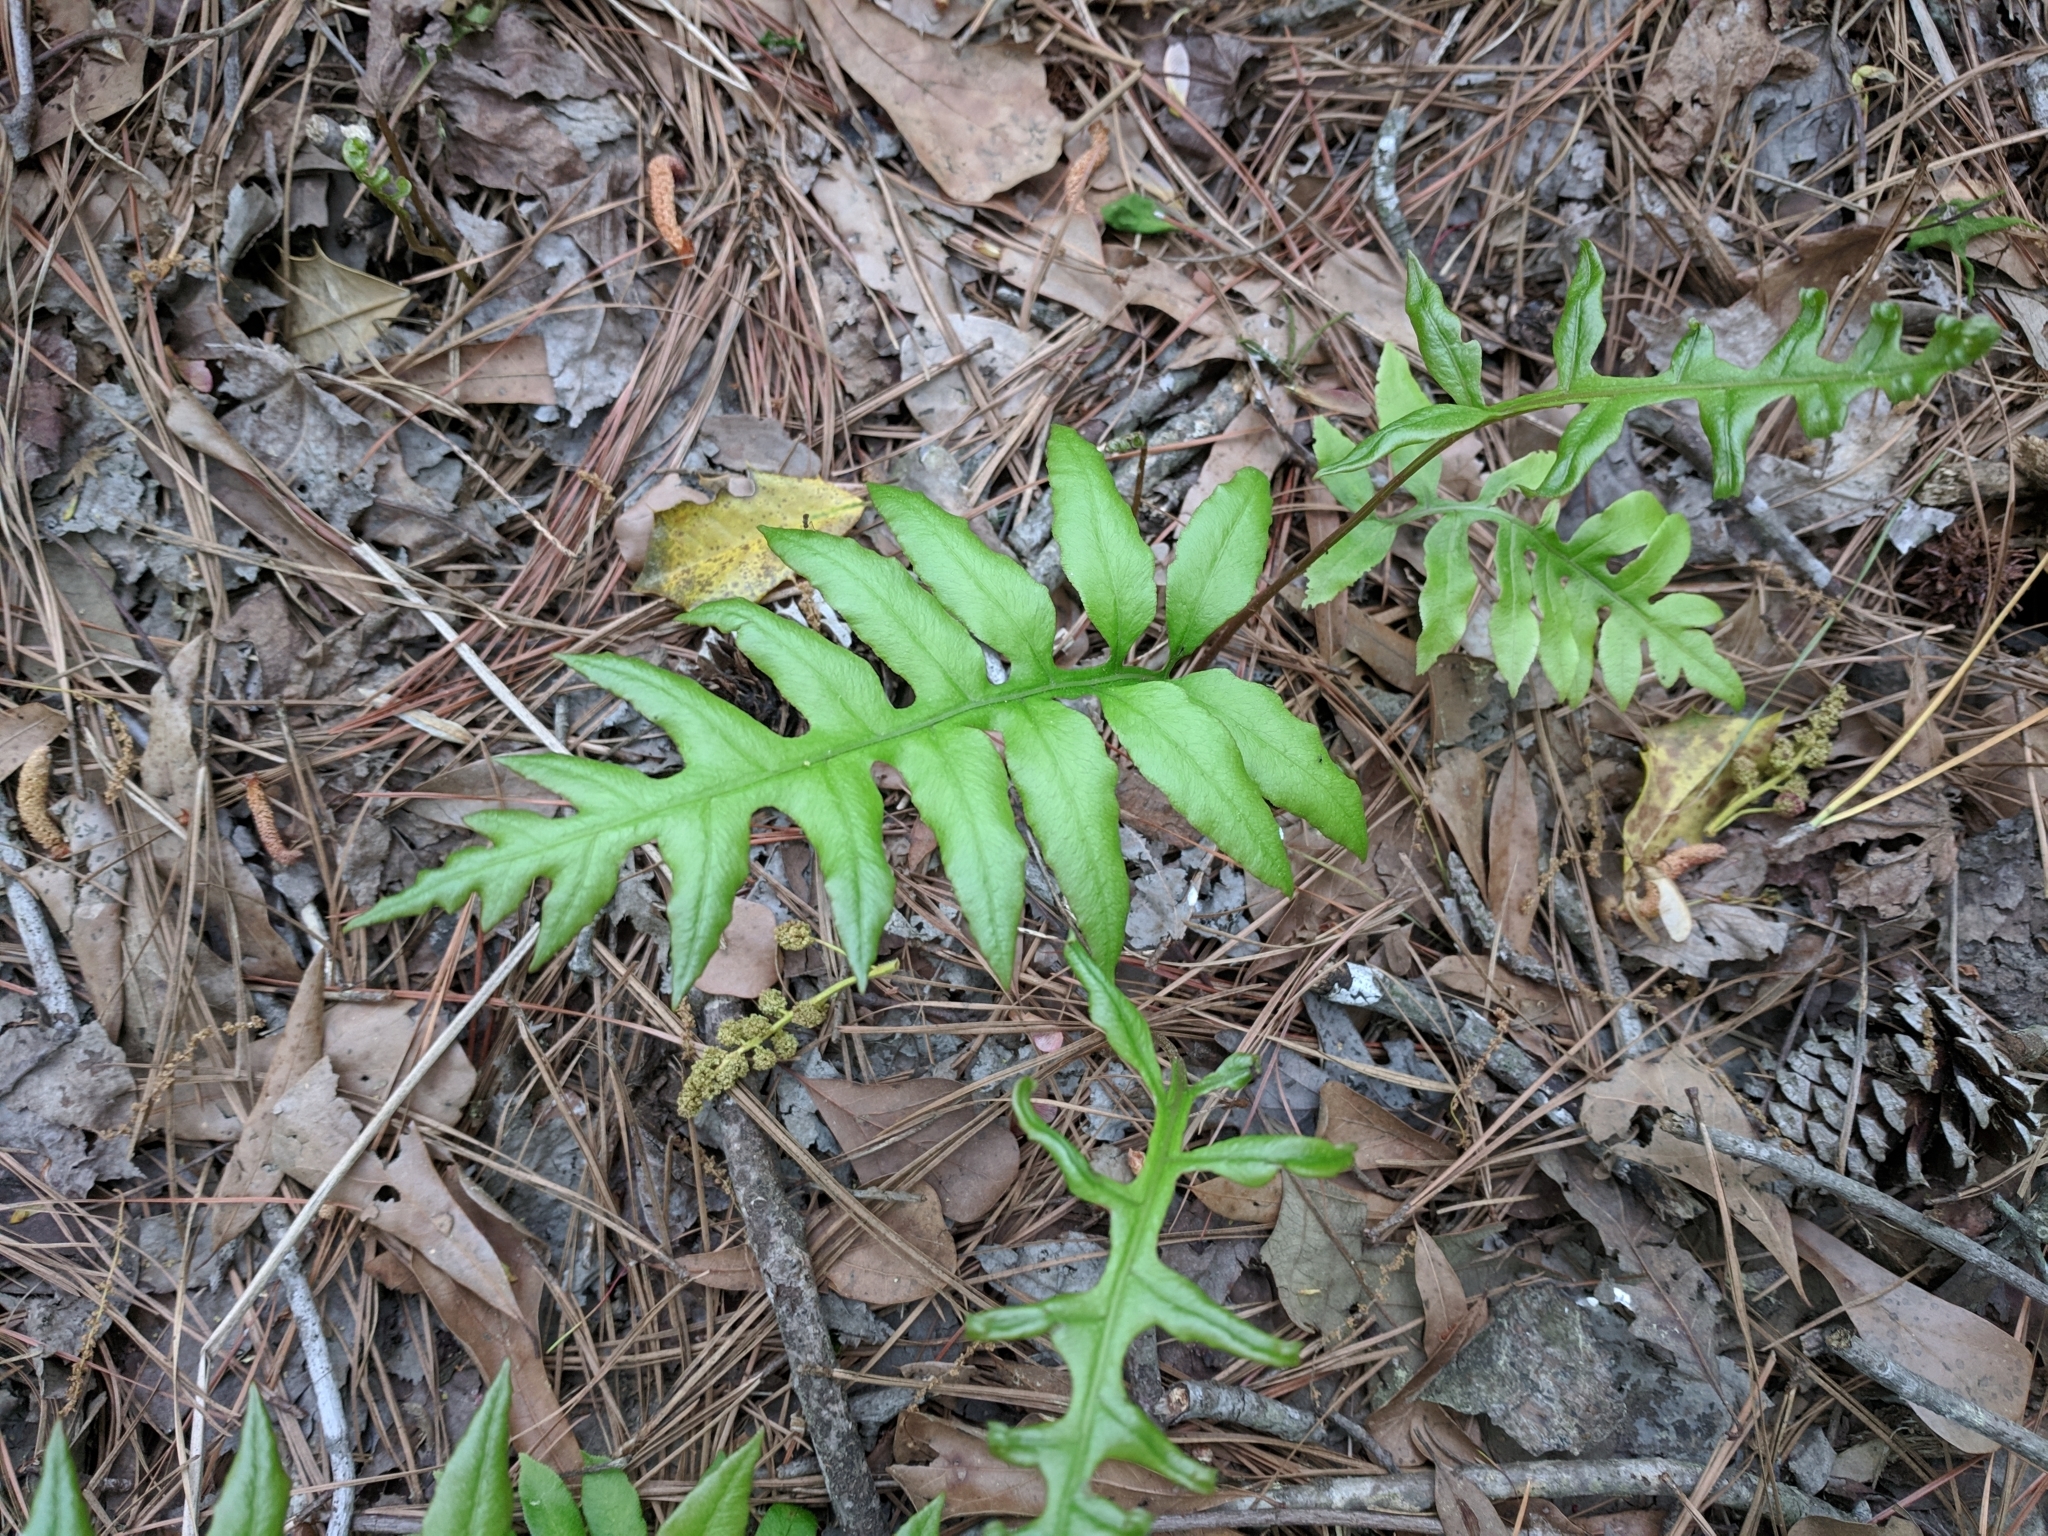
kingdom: Plantae
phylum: Tracheophyta
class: Polypodiopsida
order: Polypodiales
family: Blechnaceae
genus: Lorinseria
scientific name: Lorinseria areolata
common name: Dwarf chain fern
